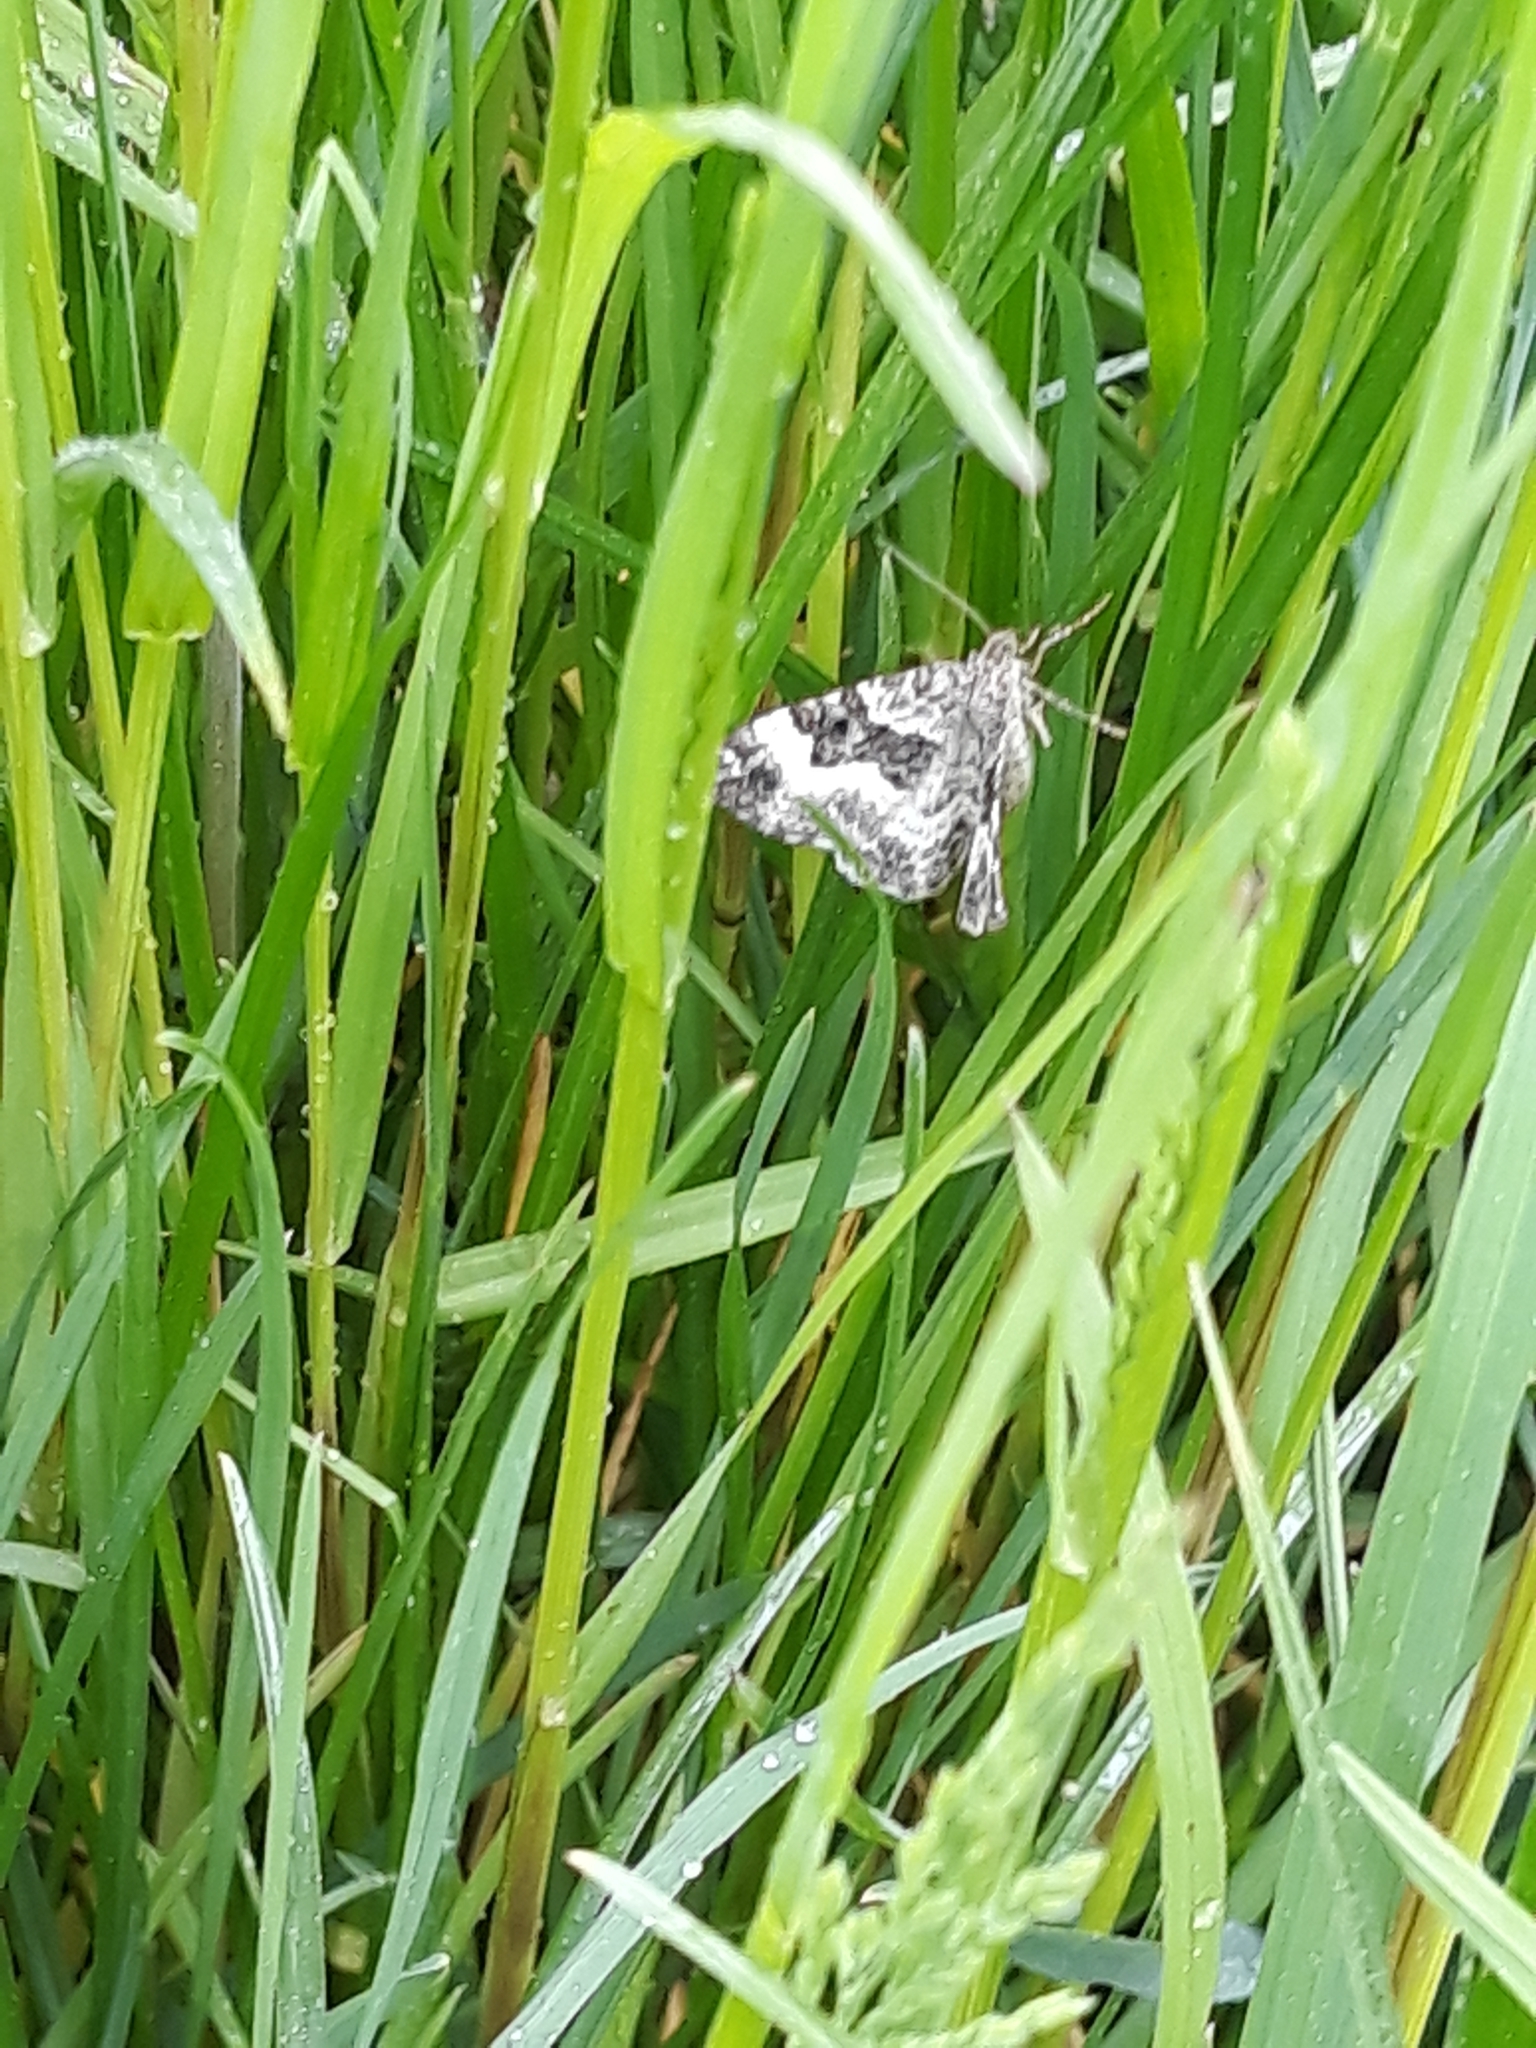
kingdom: Animalia
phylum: Arthropoda
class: Insecta
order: Lepidoptera
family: Geometridae
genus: Epirrhoe
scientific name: Epirrhoe alternata
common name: Common carpet
